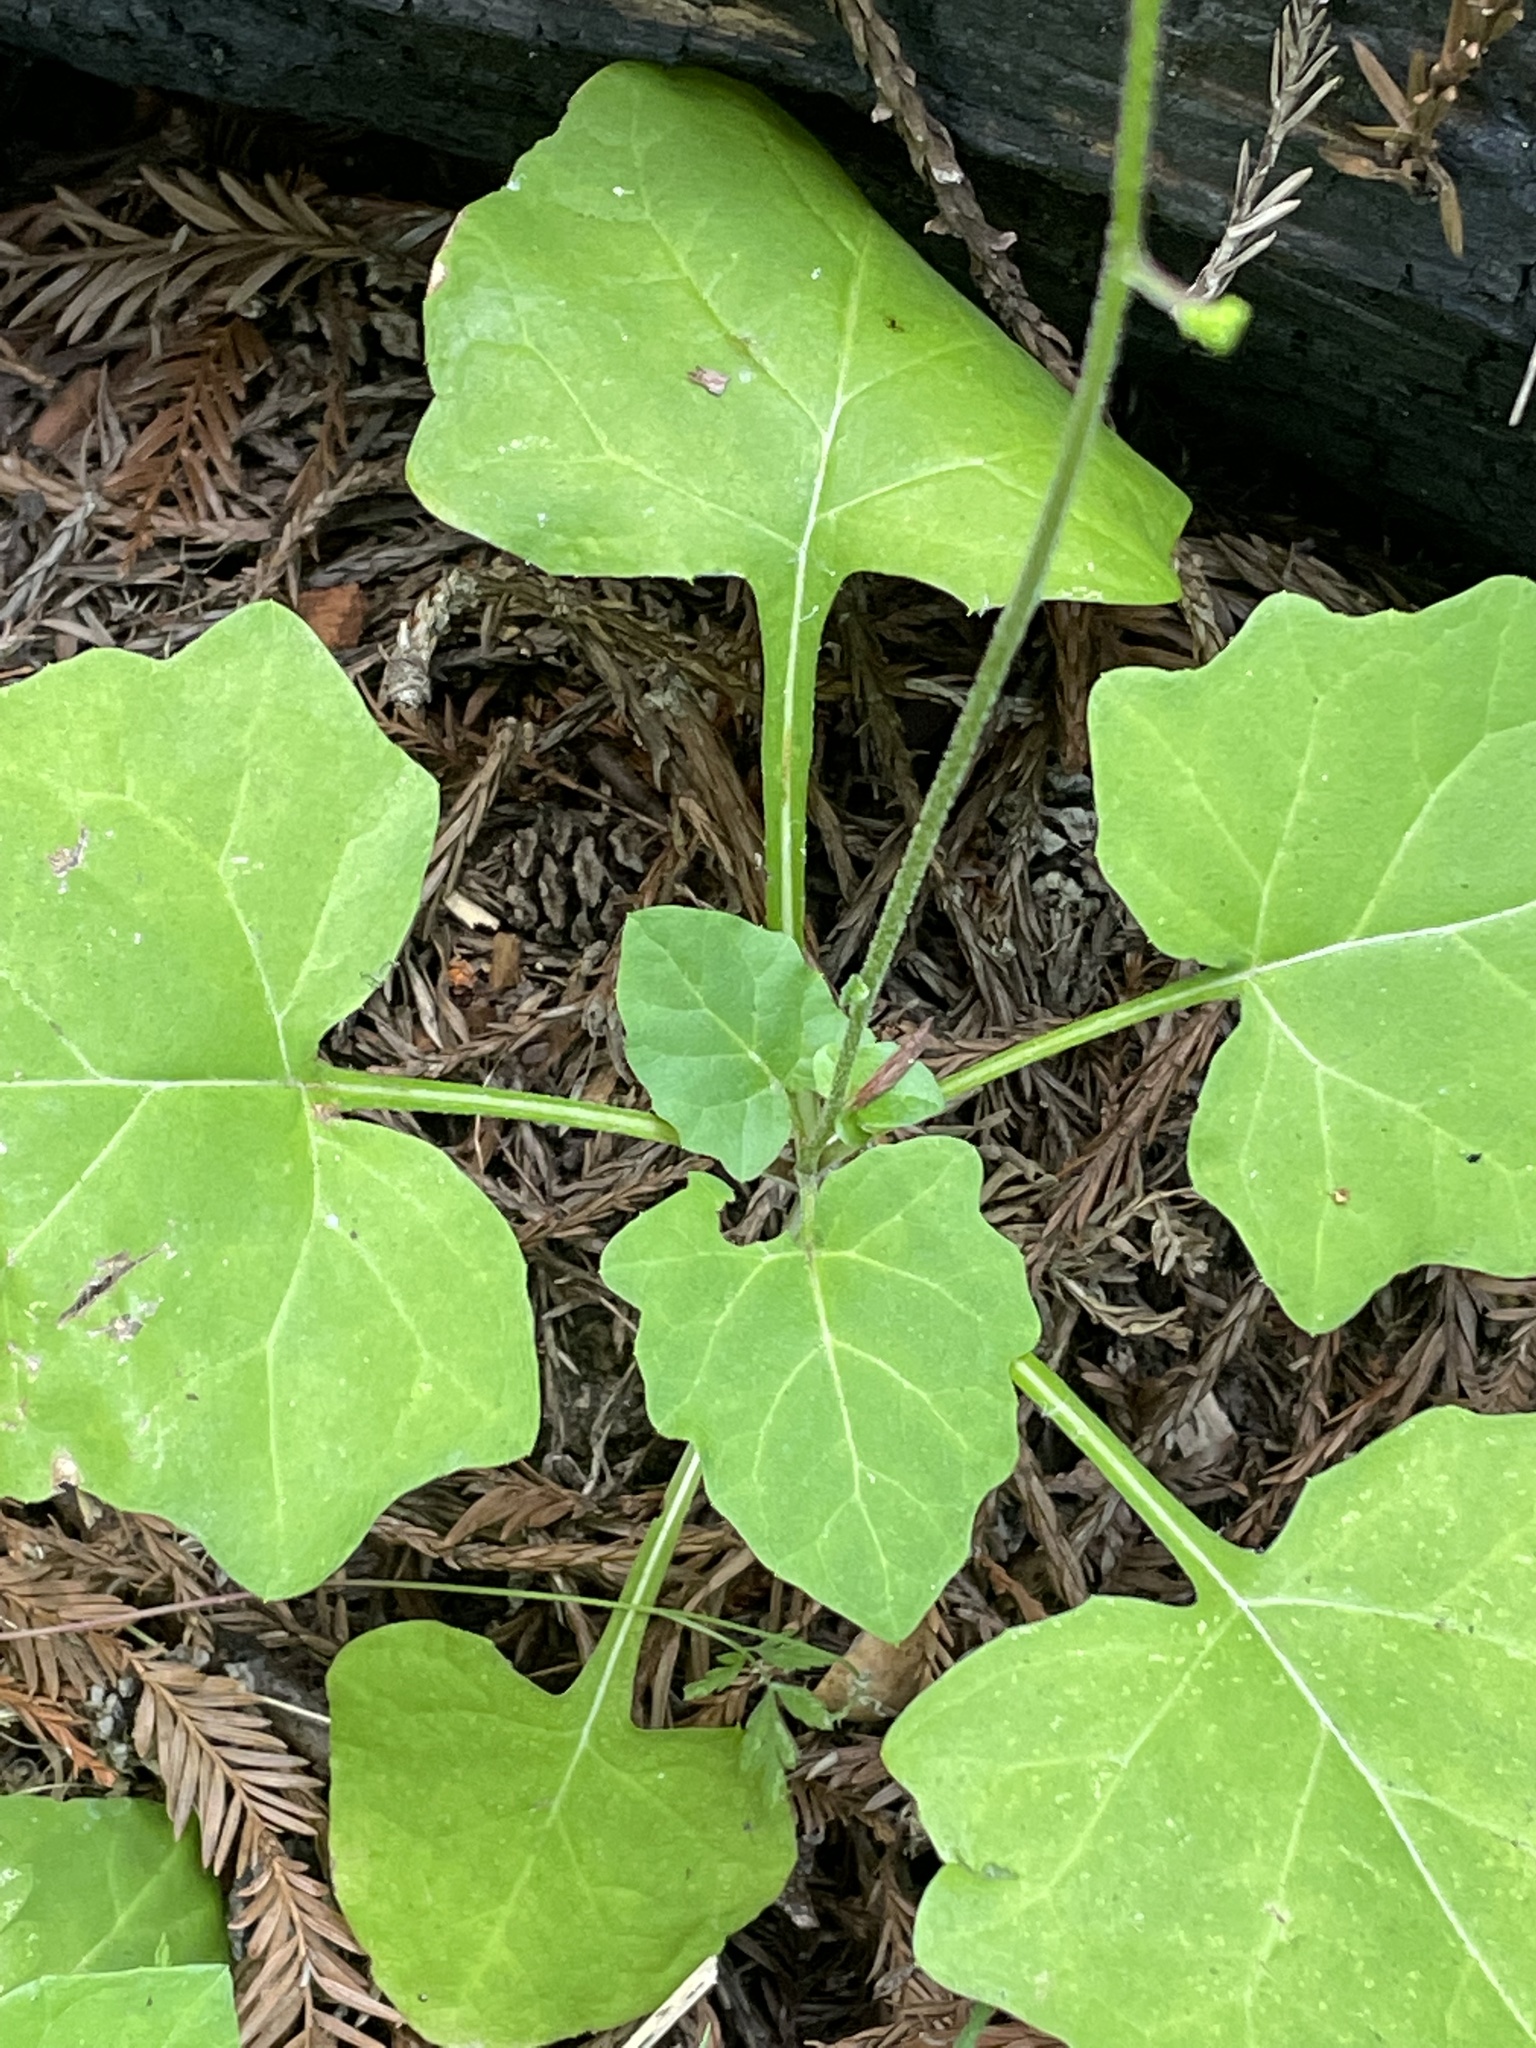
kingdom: Plantae
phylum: Tracheophyta
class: Magnoliopsida
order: Asterales
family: Asteraceae
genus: Adenocaulon
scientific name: Adenocaulon bicolor
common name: Trailplant
